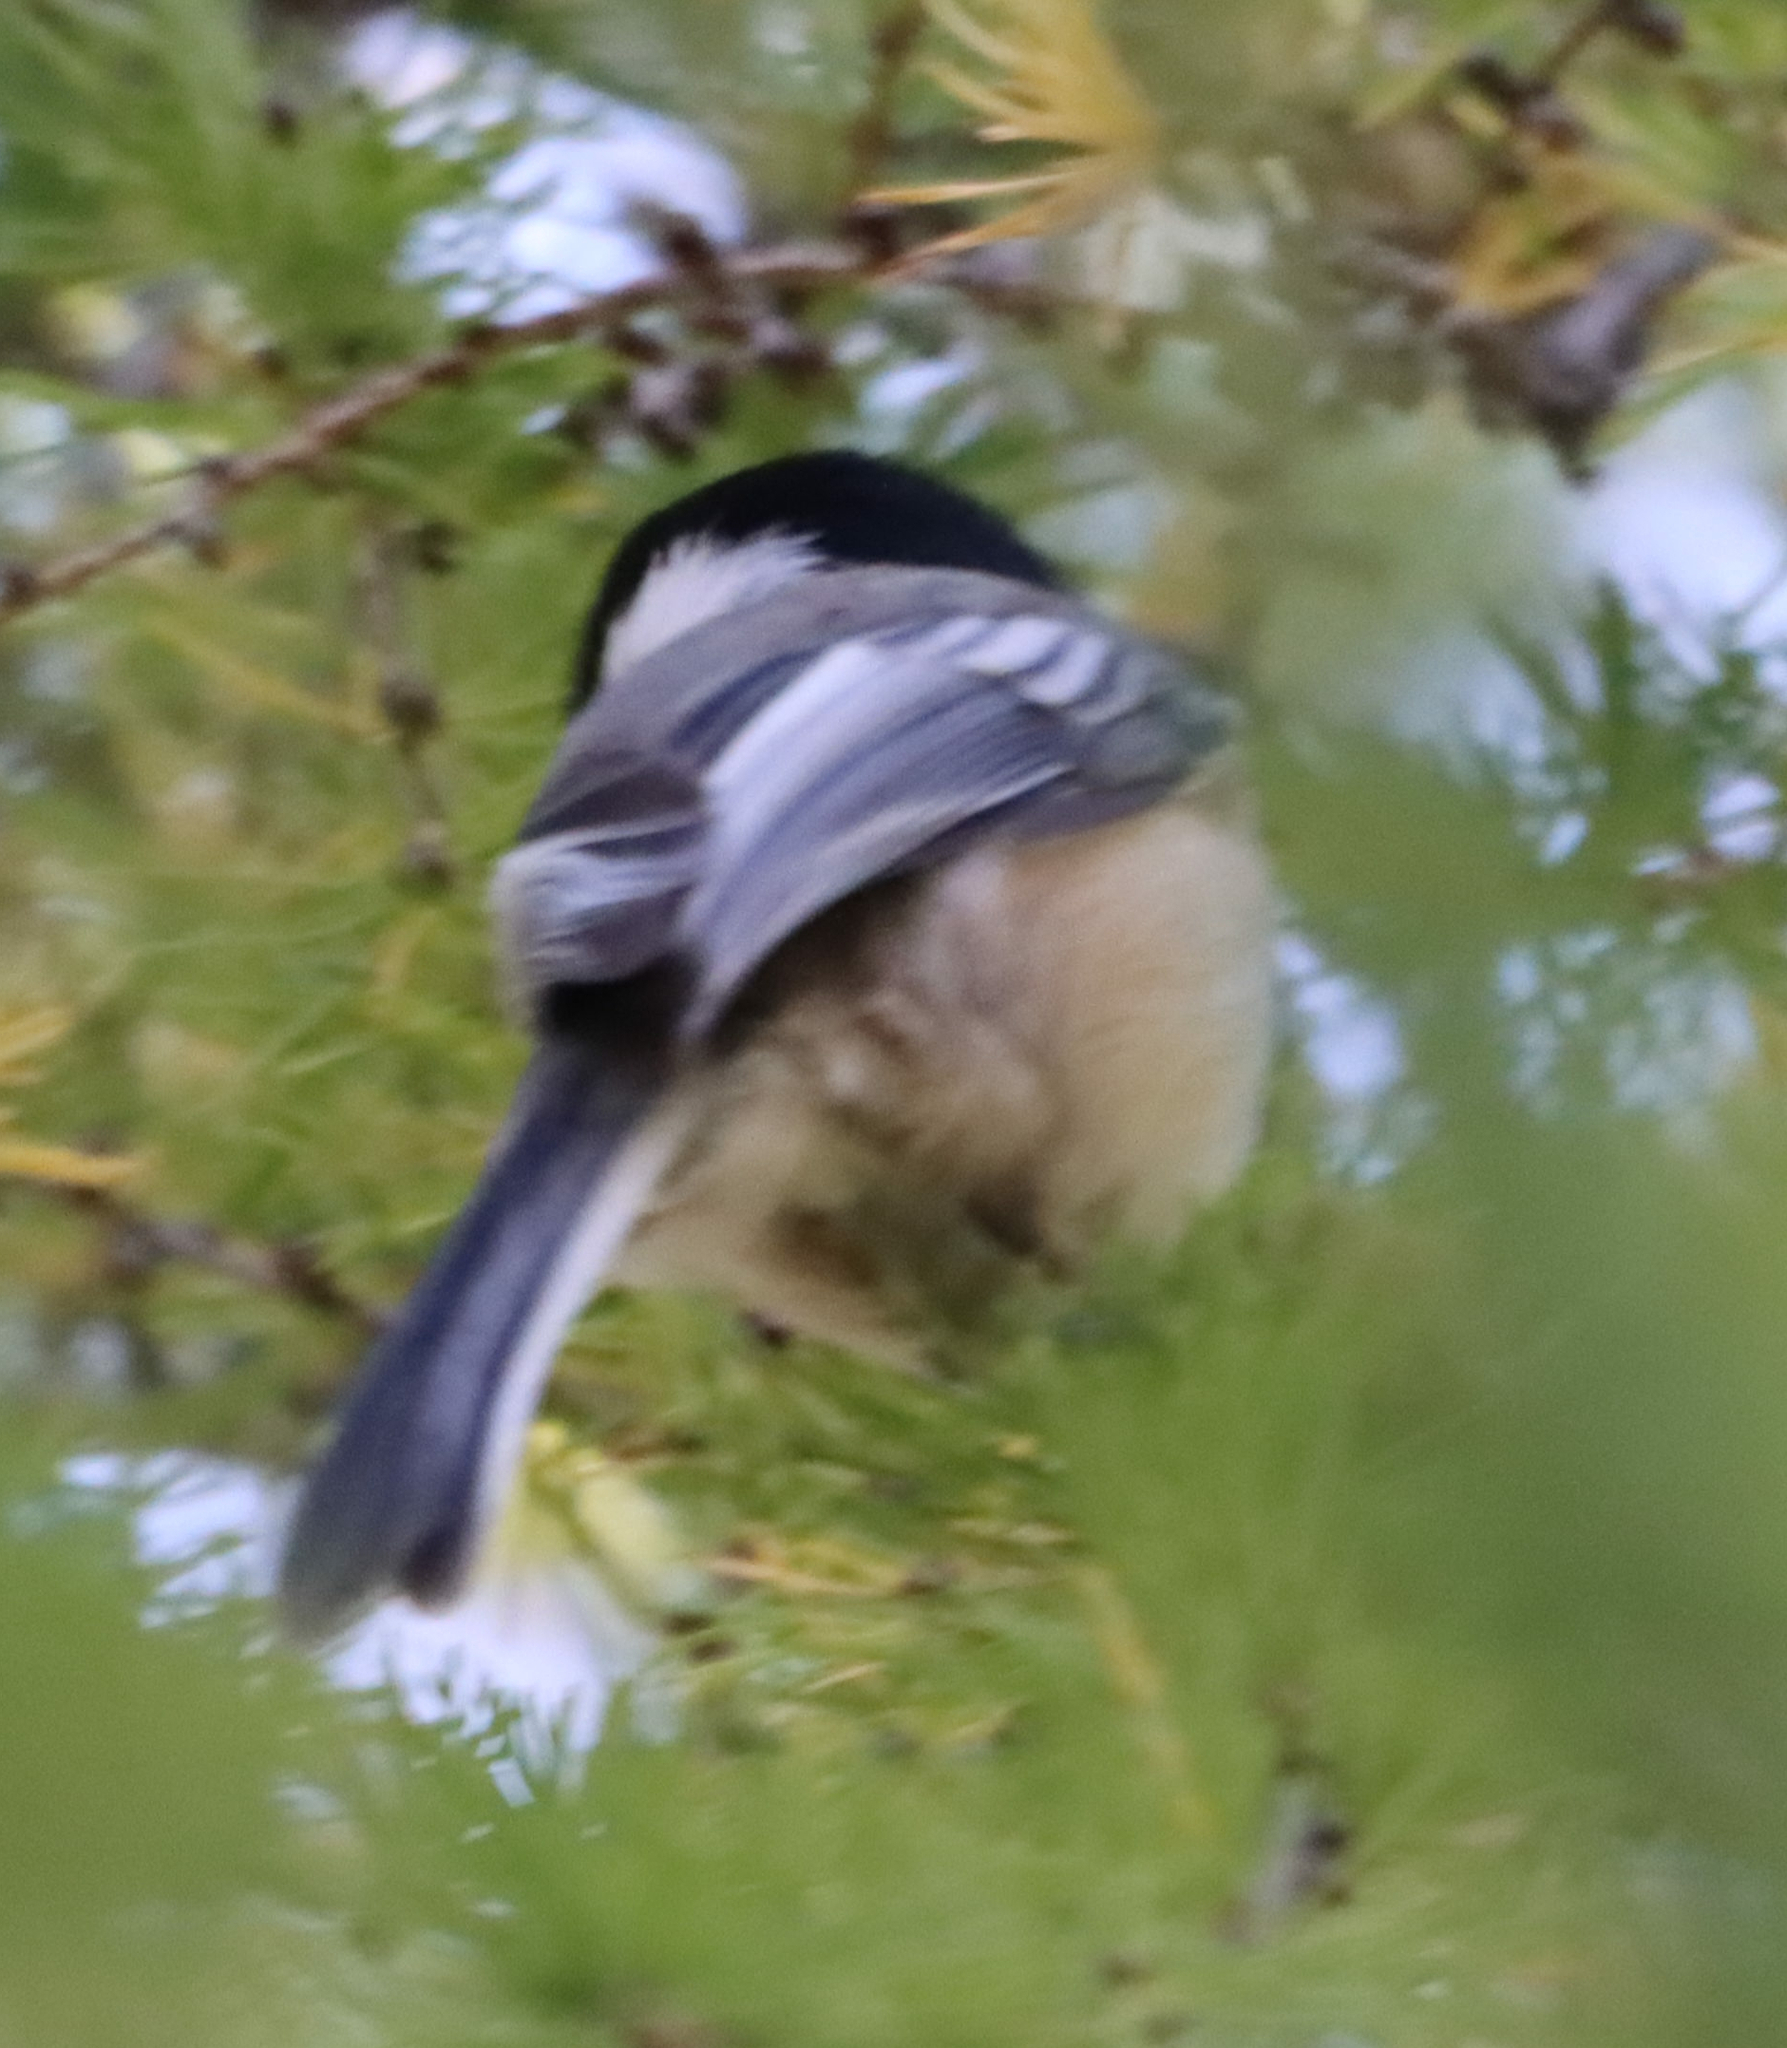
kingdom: Animalia
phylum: Chordata
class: Aves
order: Passeriformes
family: Paridae
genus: Poecile
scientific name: Poecile atricapillus
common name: Black-capped chickadee
